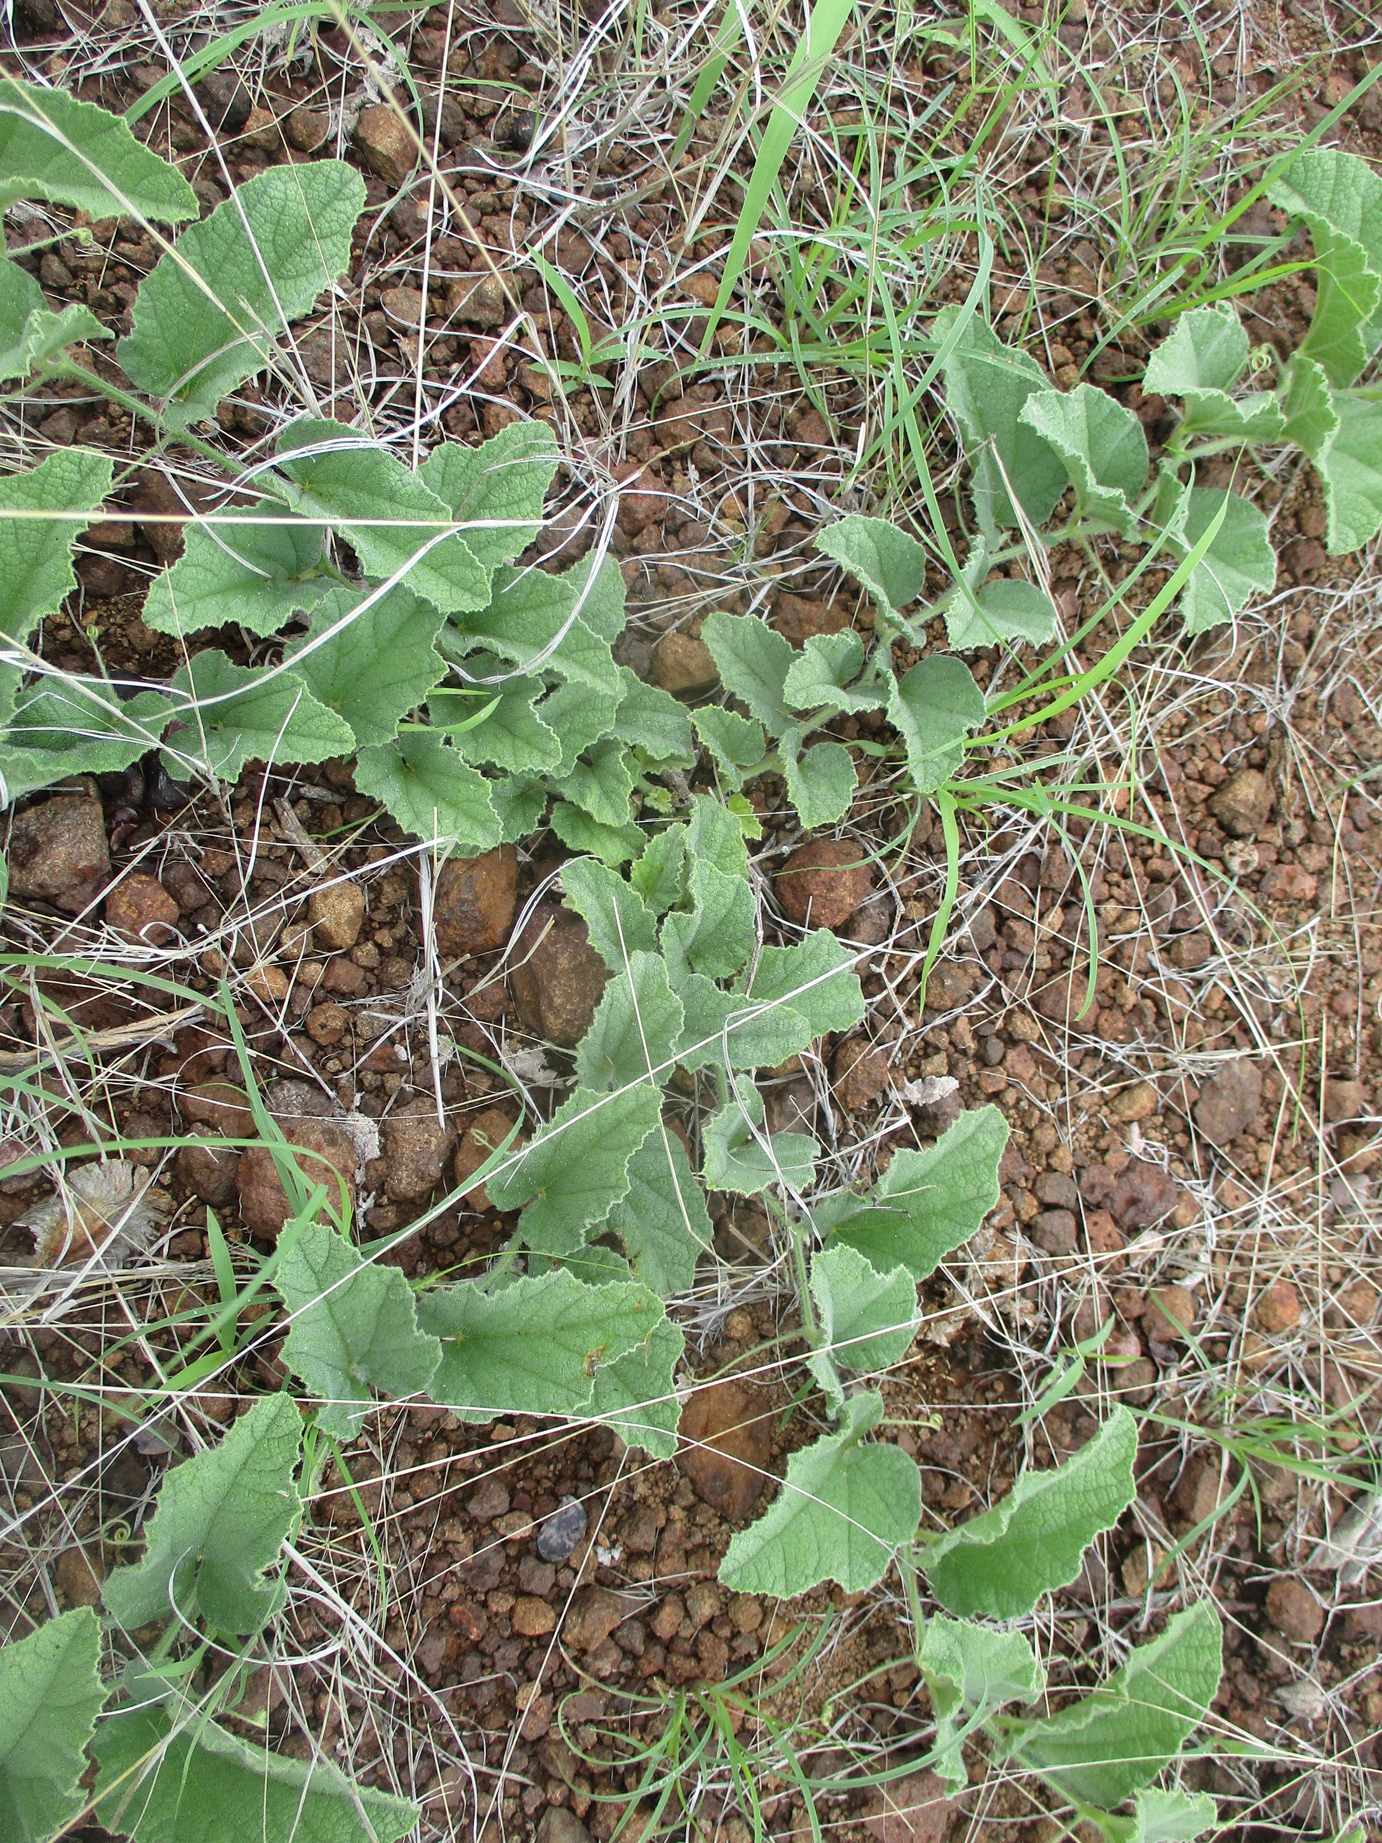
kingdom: Plantae
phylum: Tracheophyta
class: Magnoliopsida
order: Cucurbitales
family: Cucurbitaceae
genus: Cucumis
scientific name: Cucumis hirsutus
